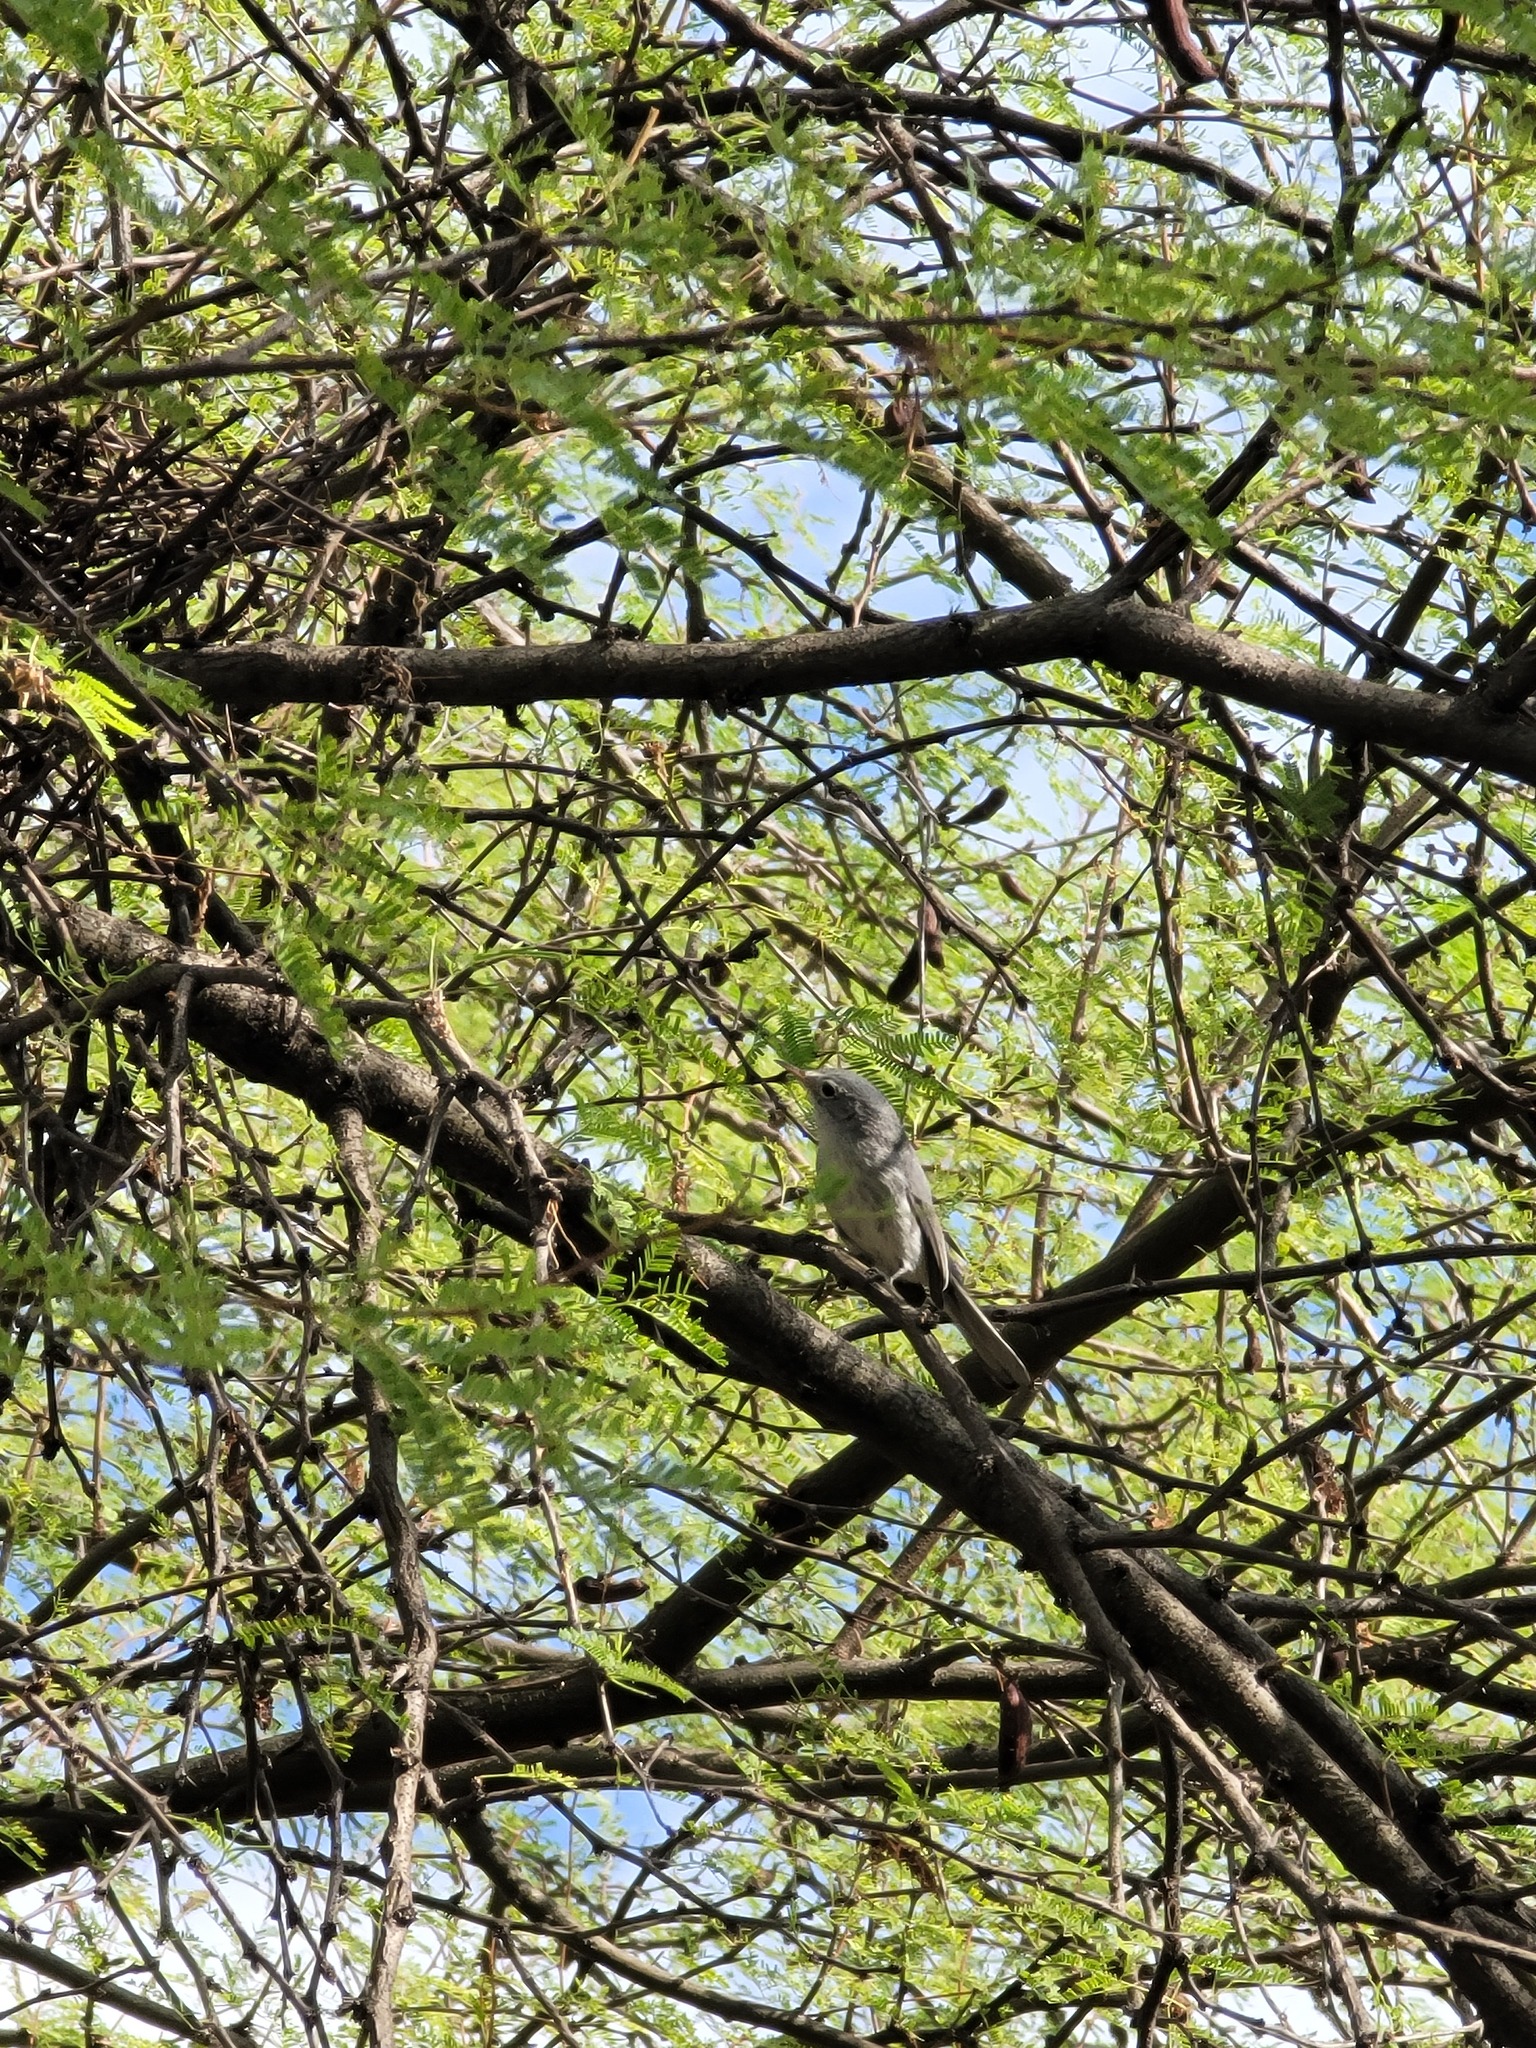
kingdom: Animalia
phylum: Chordata
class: Aves
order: Passeriformes
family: Polioptilidae
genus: Polioptila
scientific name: Polioptila caerulea
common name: Blue-gray gnatcatcher
